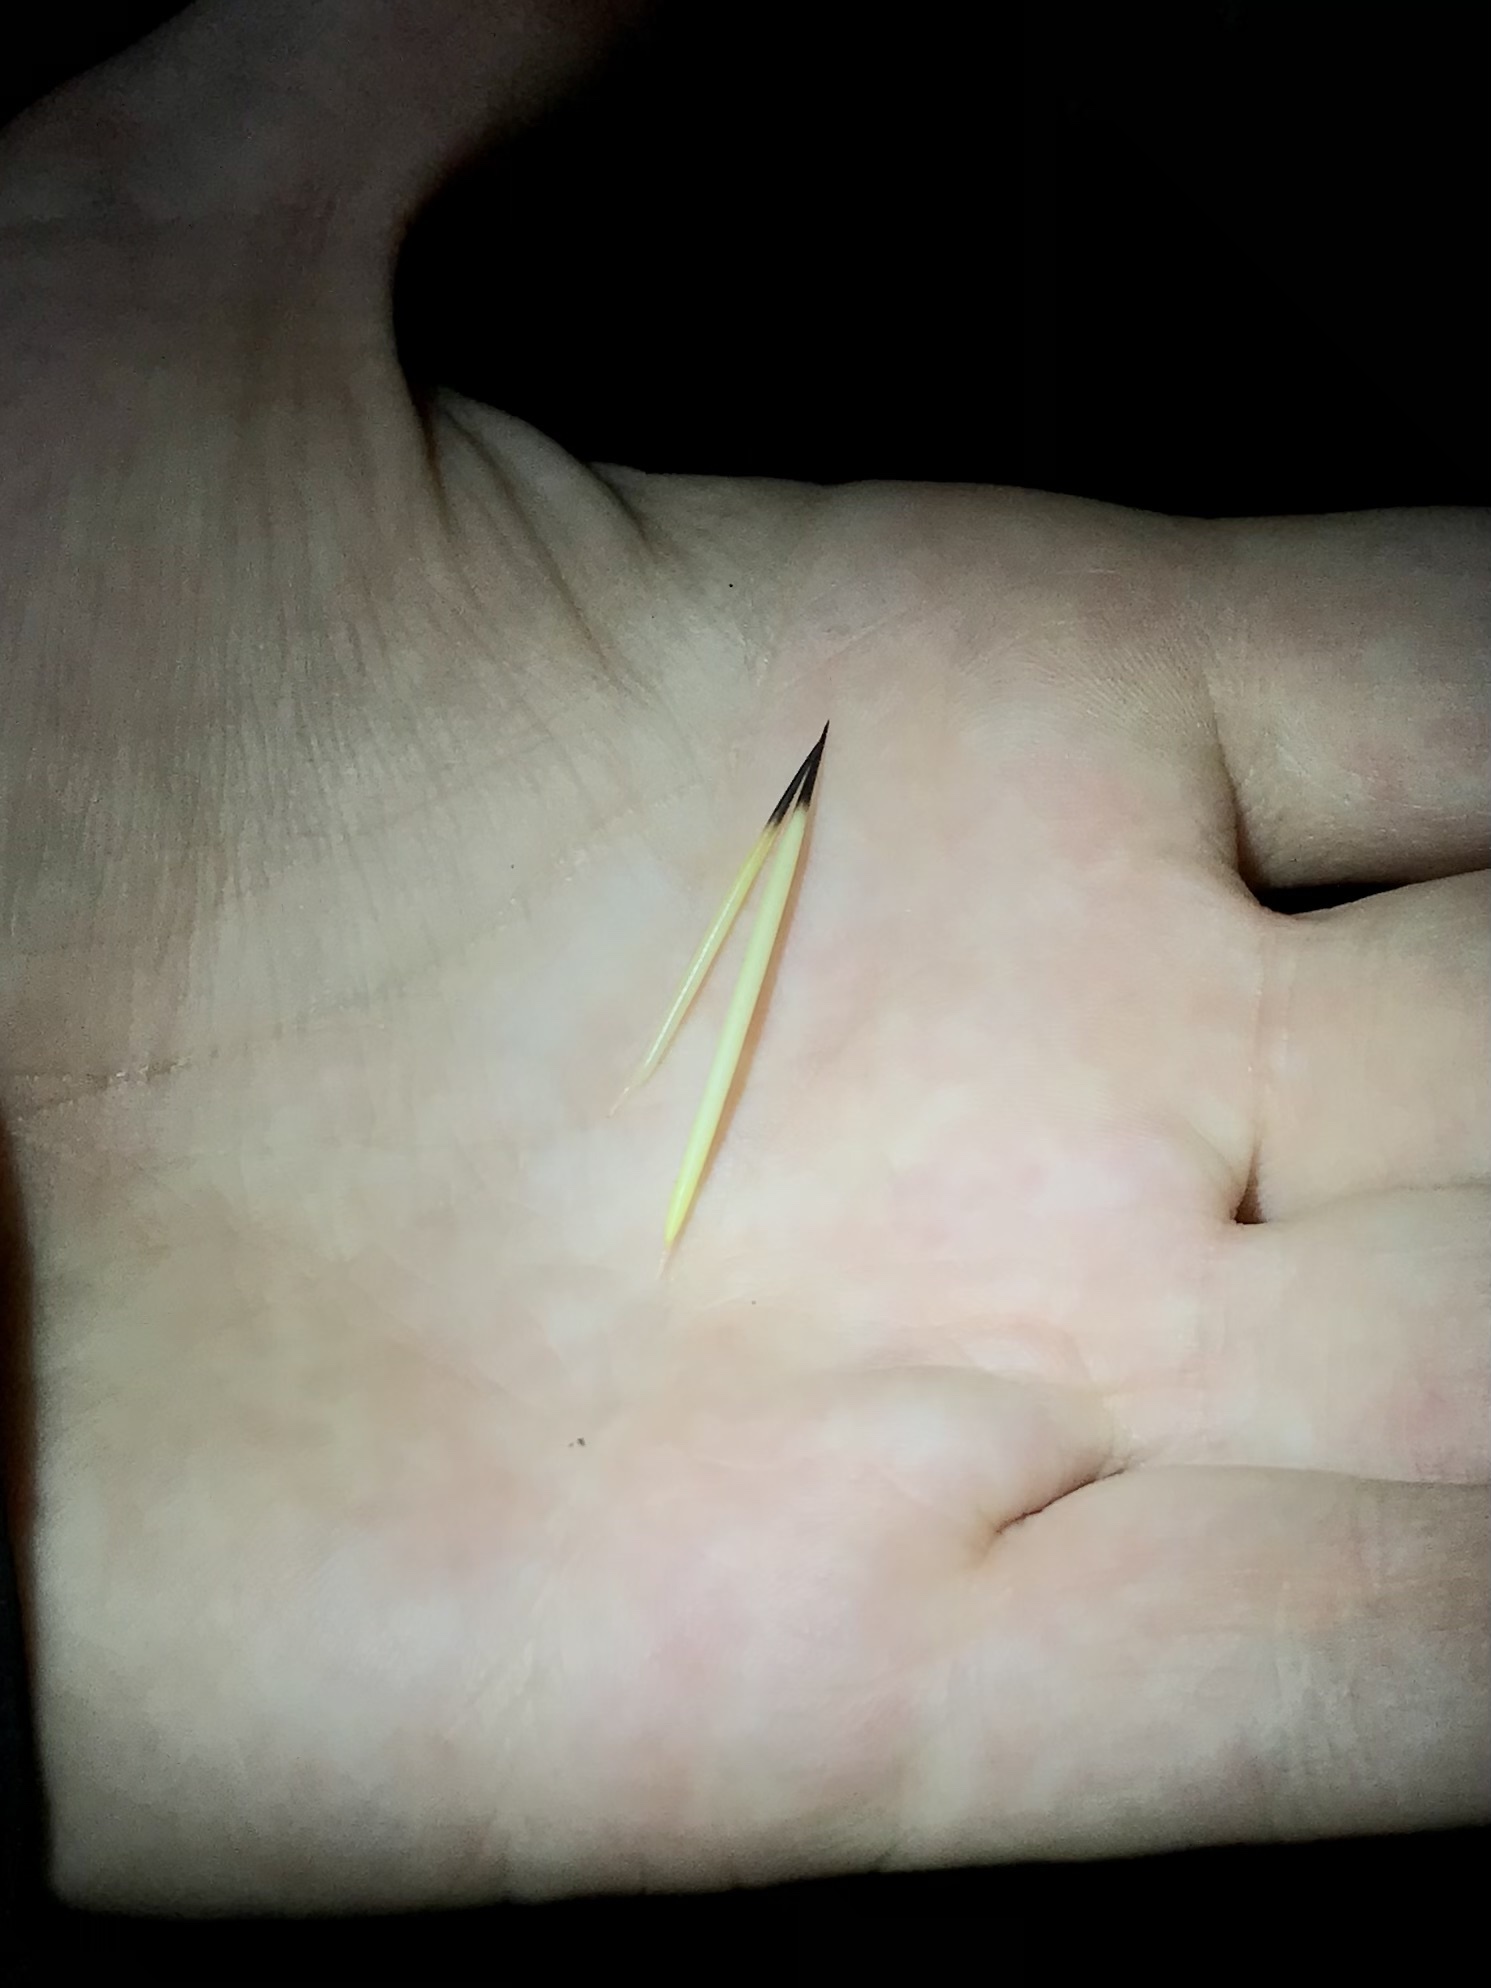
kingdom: Animalia
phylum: Chordata
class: Mammalia
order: Rodentia
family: Erethizontidae
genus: Sphiggurus
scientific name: Sphiggurus mexicanus
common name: Mexican hairy dwarf porcupine
